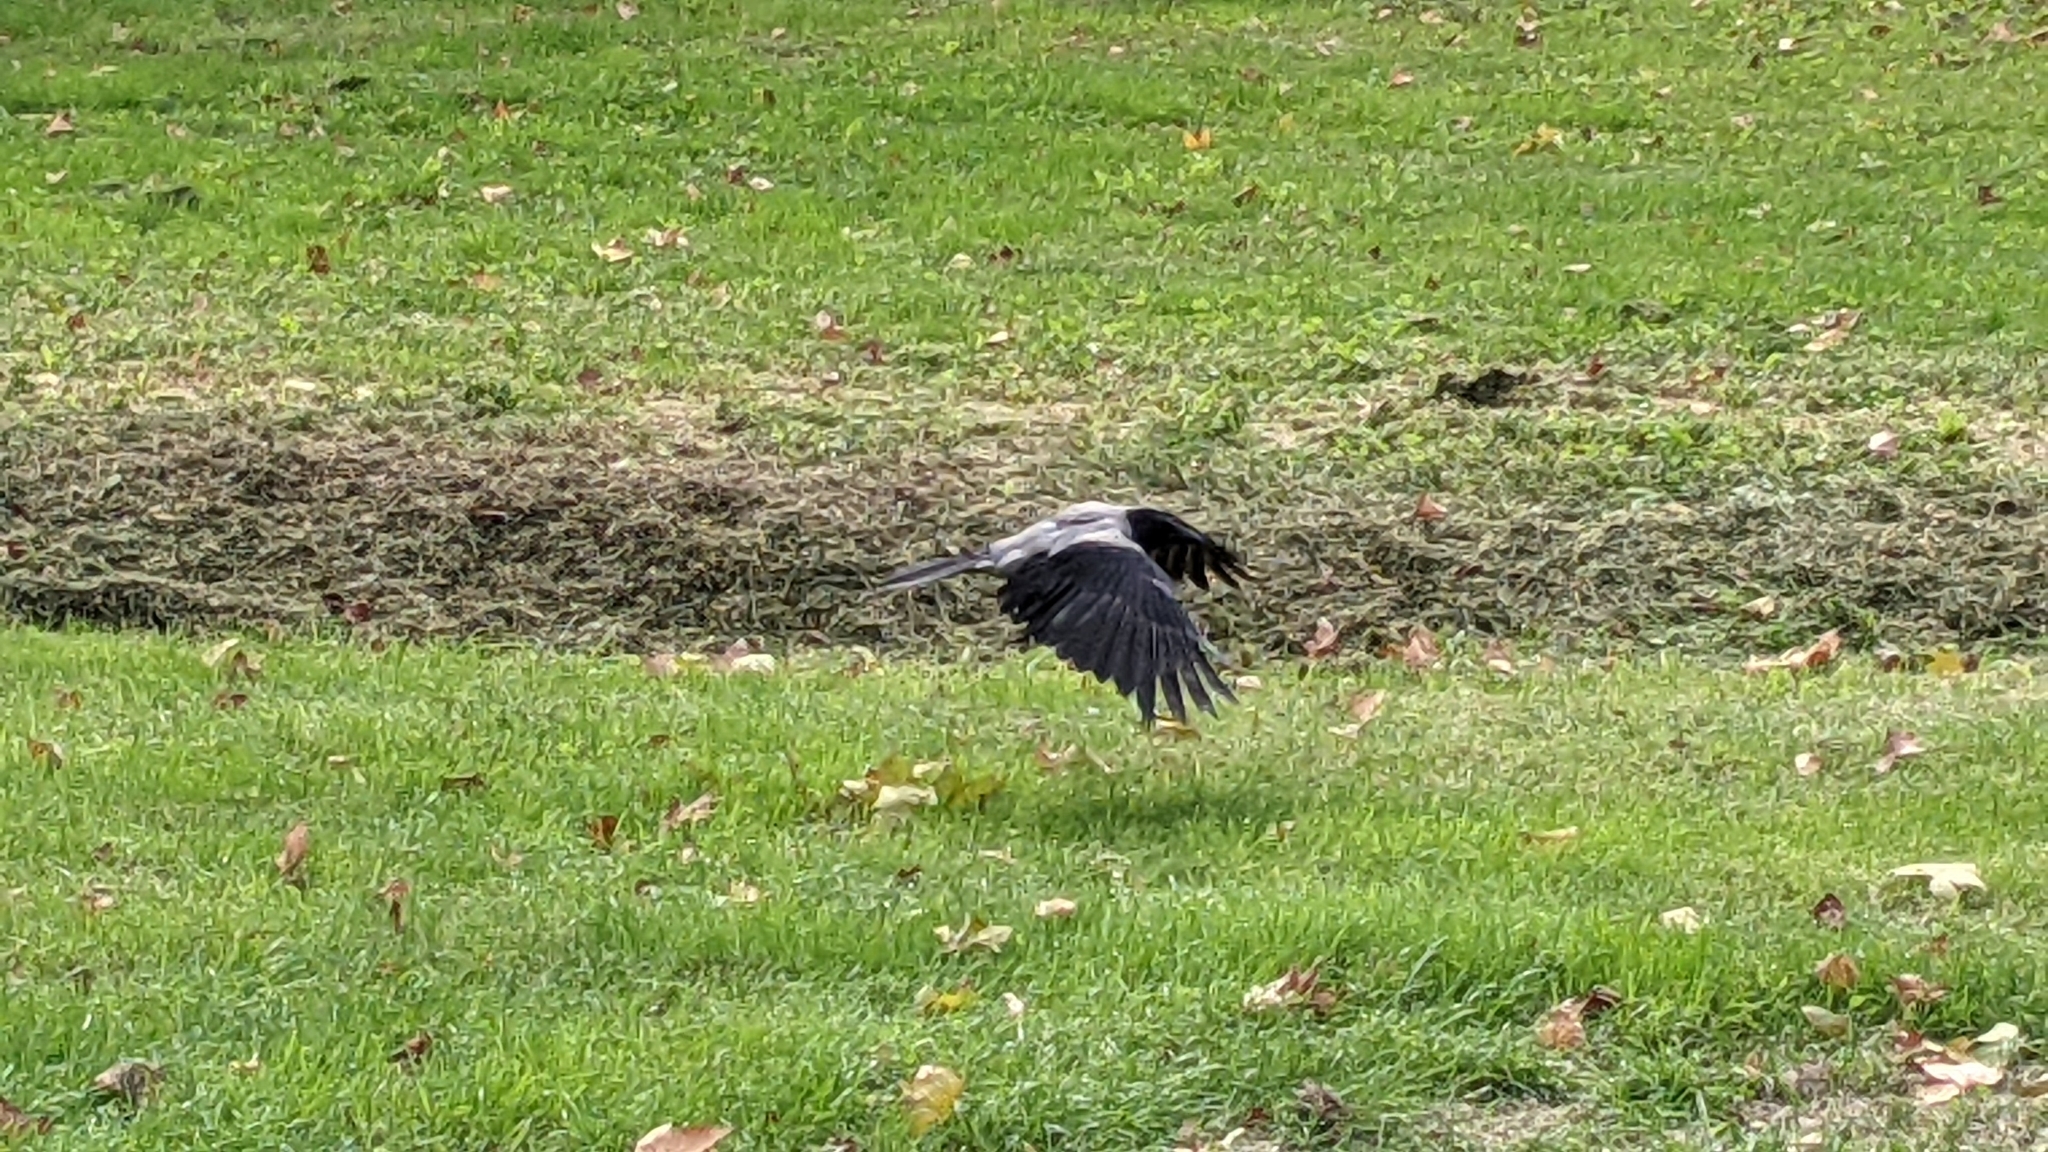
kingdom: Animalia
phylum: Chordata
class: Aves
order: Passeriformes
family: Corvidae
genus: Corvus
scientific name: Corvus cornix
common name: Hooded crow
